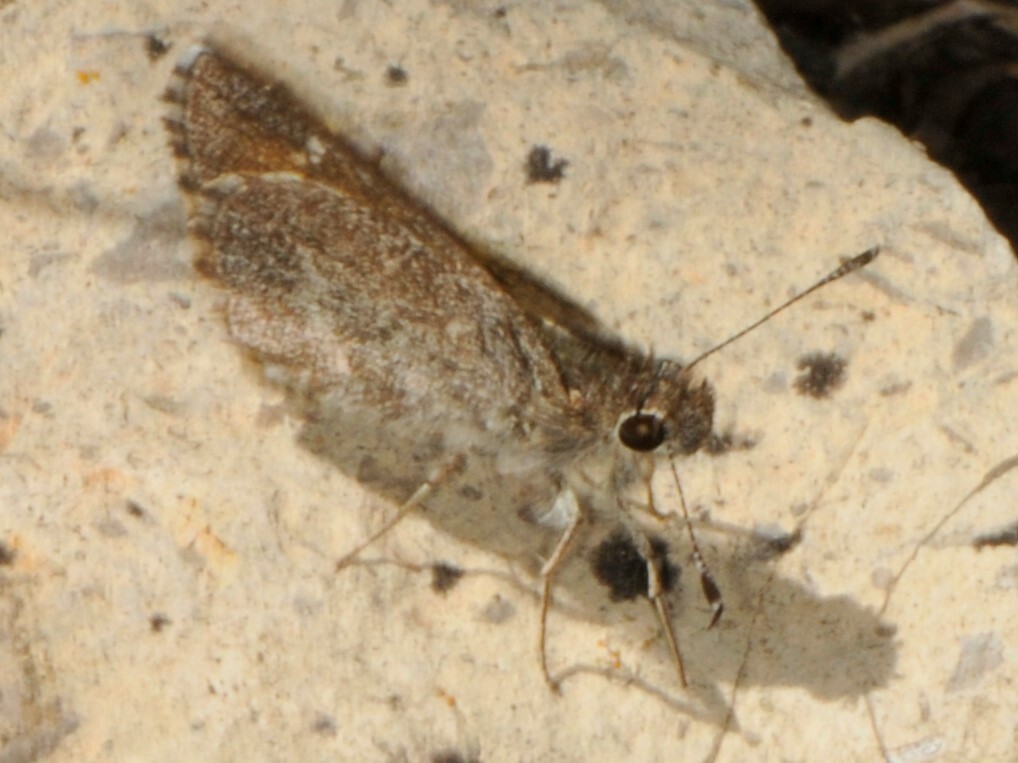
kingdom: Animalia
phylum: Arthropoda
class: Insecta
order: Lepidoptera
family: Hesperiidae
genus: Mastor
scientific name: Mastor aenus
